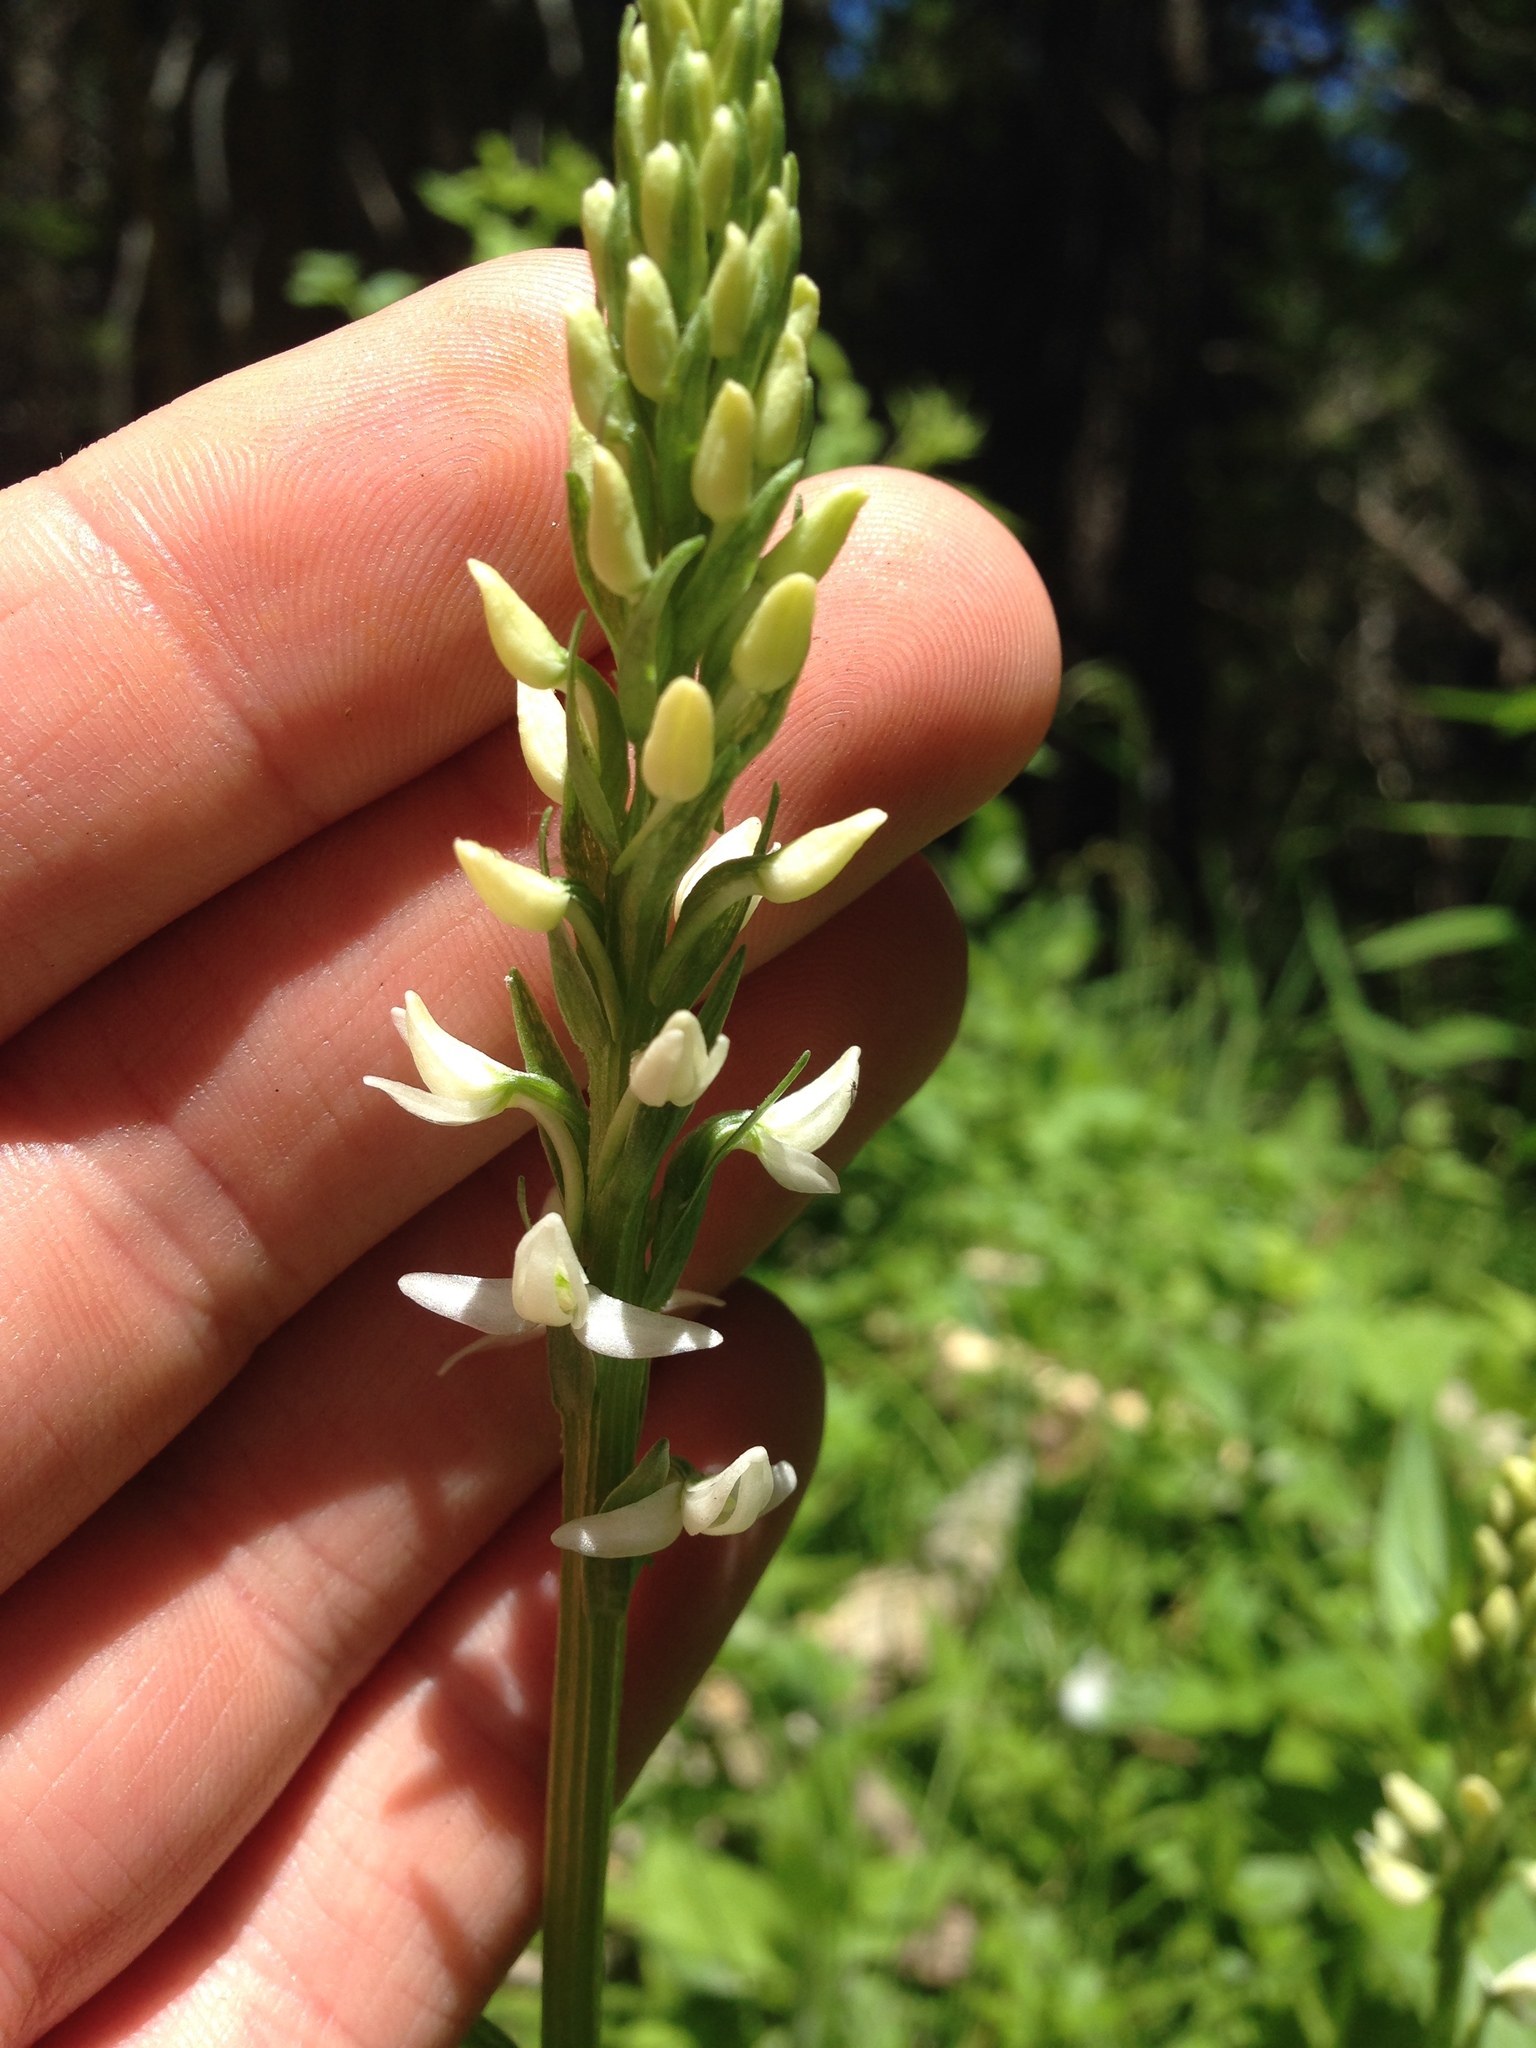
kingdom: Plantae
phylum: Tracheophyta
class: Liliopsida
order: Asparagales
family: Orchidaceae
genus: Platanthera
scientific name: Platanthera dilatata
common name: Bog candles
